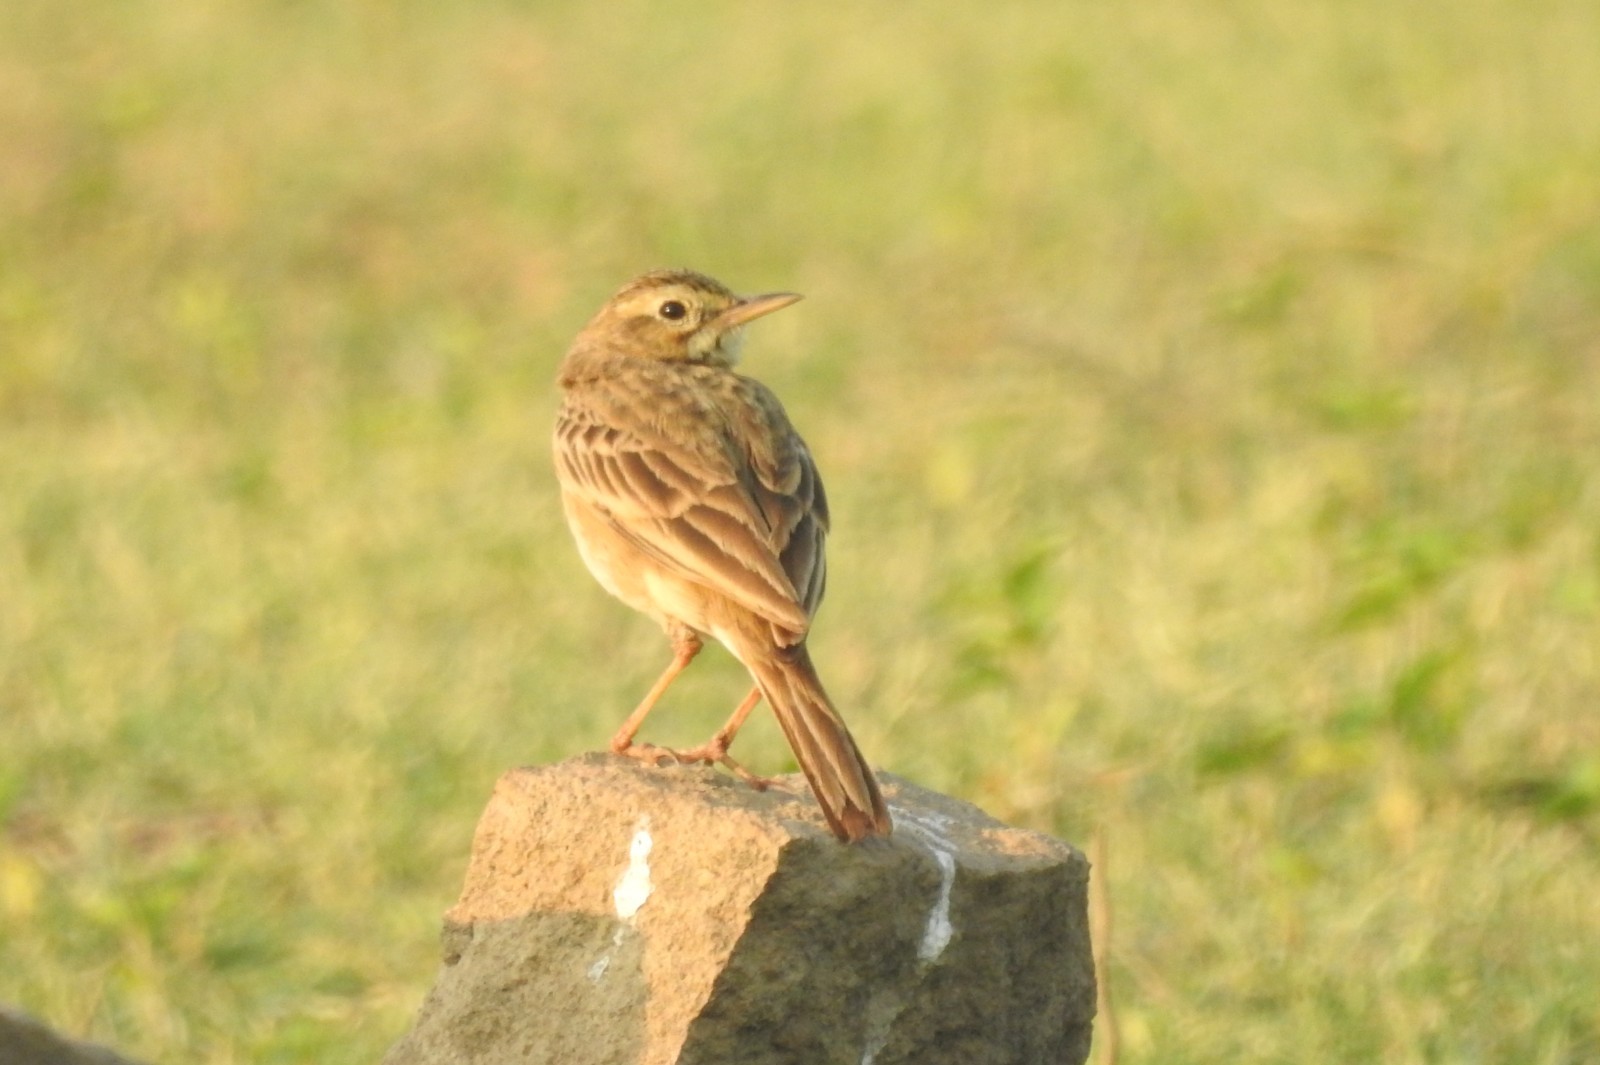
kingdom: Animalia
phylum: Chordata
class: Aves
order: Passeriformes
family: Motacillidae
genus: Anthus
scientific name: Anthus similis
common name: Long-billed pipit
